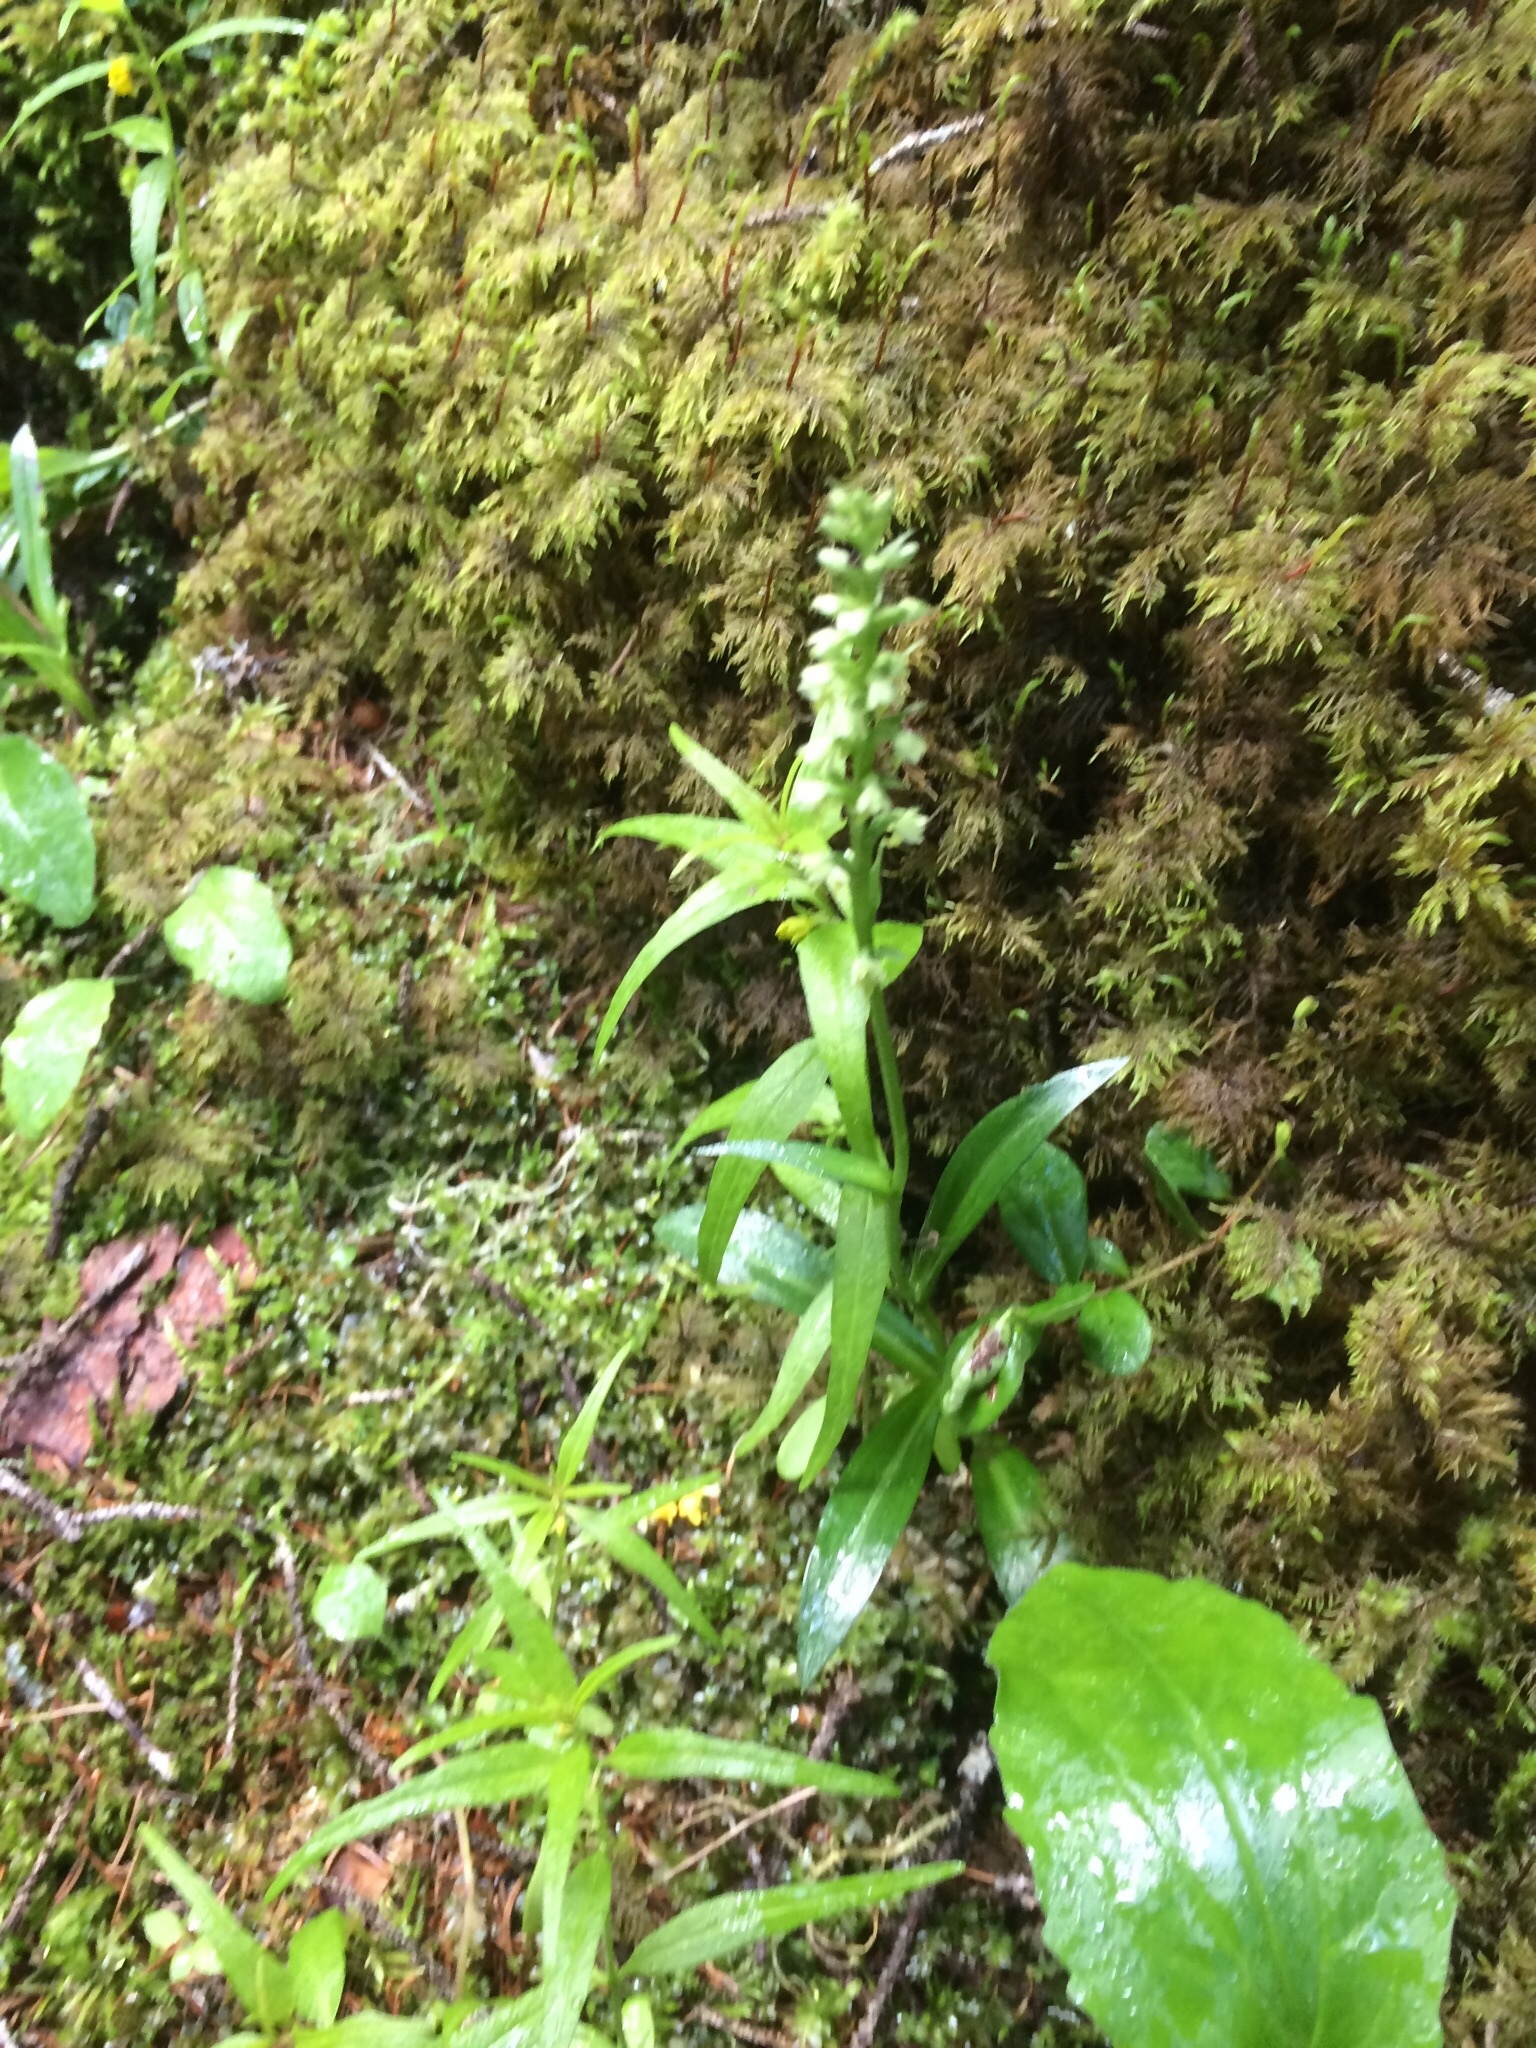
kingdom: Plantae
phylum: Tracheophyta
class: Liliopsida
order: Asparagales
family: Orchidaceae
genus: Herminium
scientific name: Herminium monorchis
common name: Musk orchid
